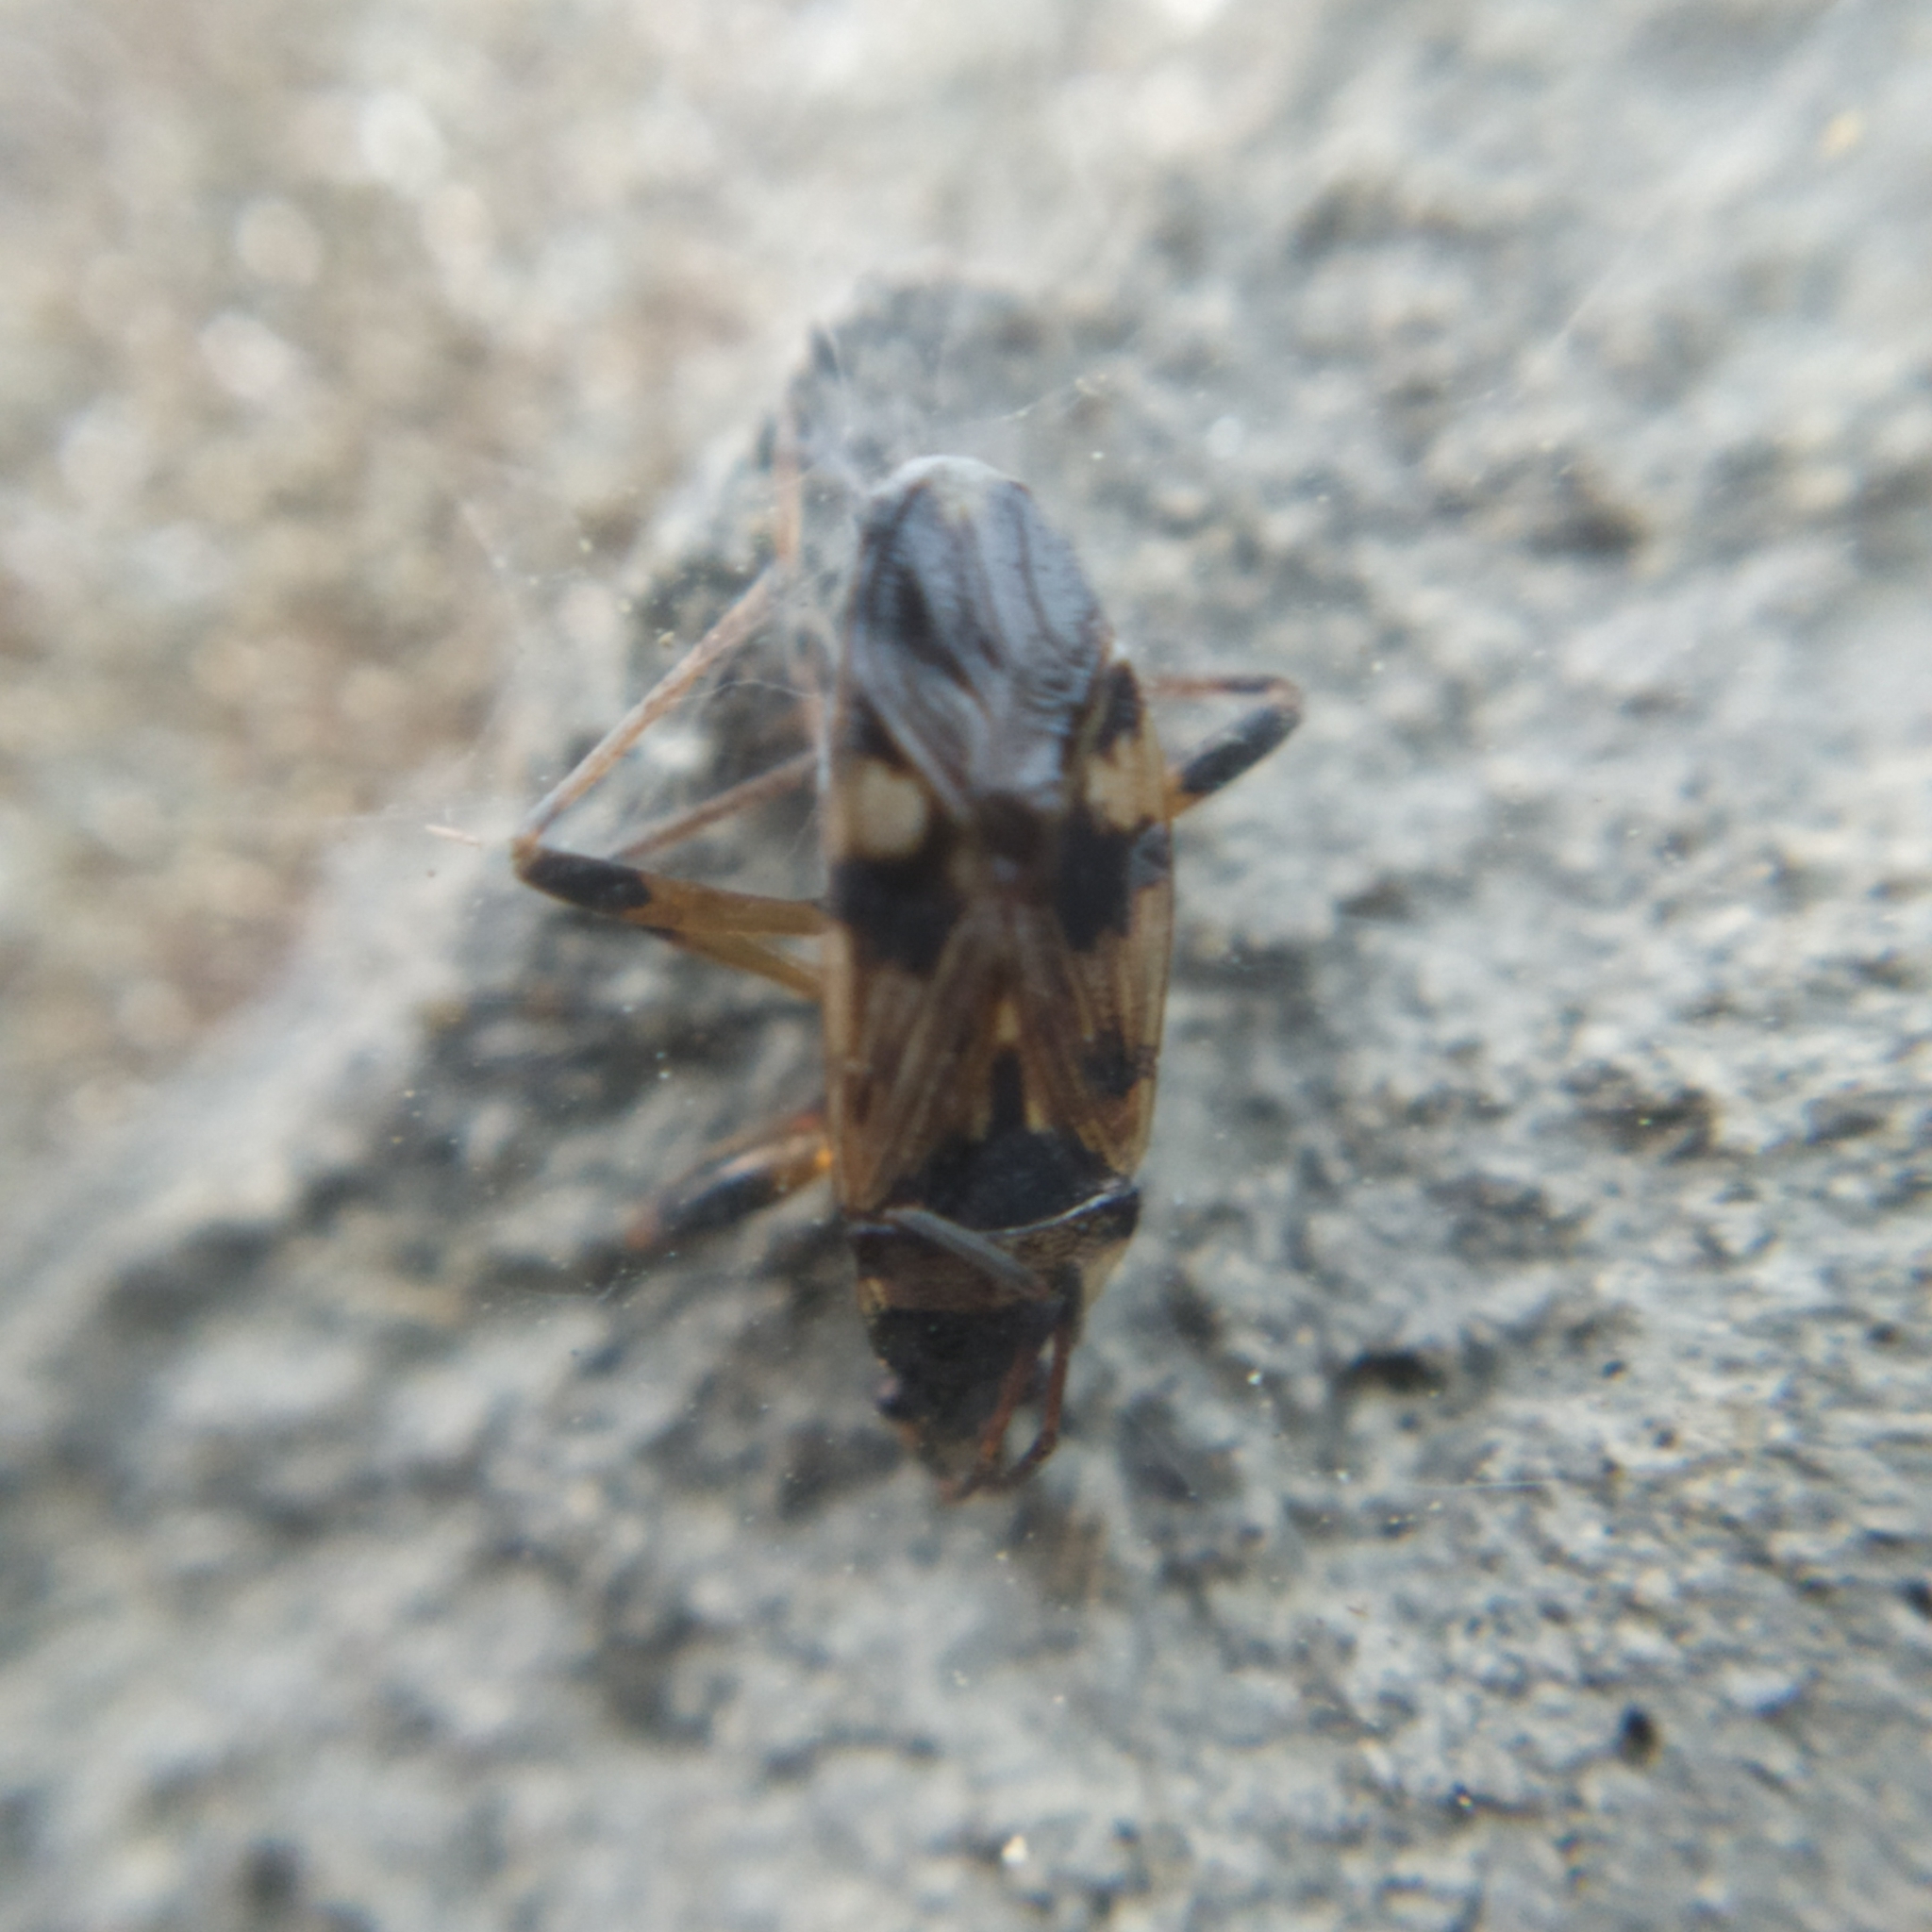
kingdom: Animalia
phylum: Arthropoda
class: Insecta
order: Hemiptera
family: Rhyparochromidae
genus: Beosus
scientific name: Beosus maritimus
